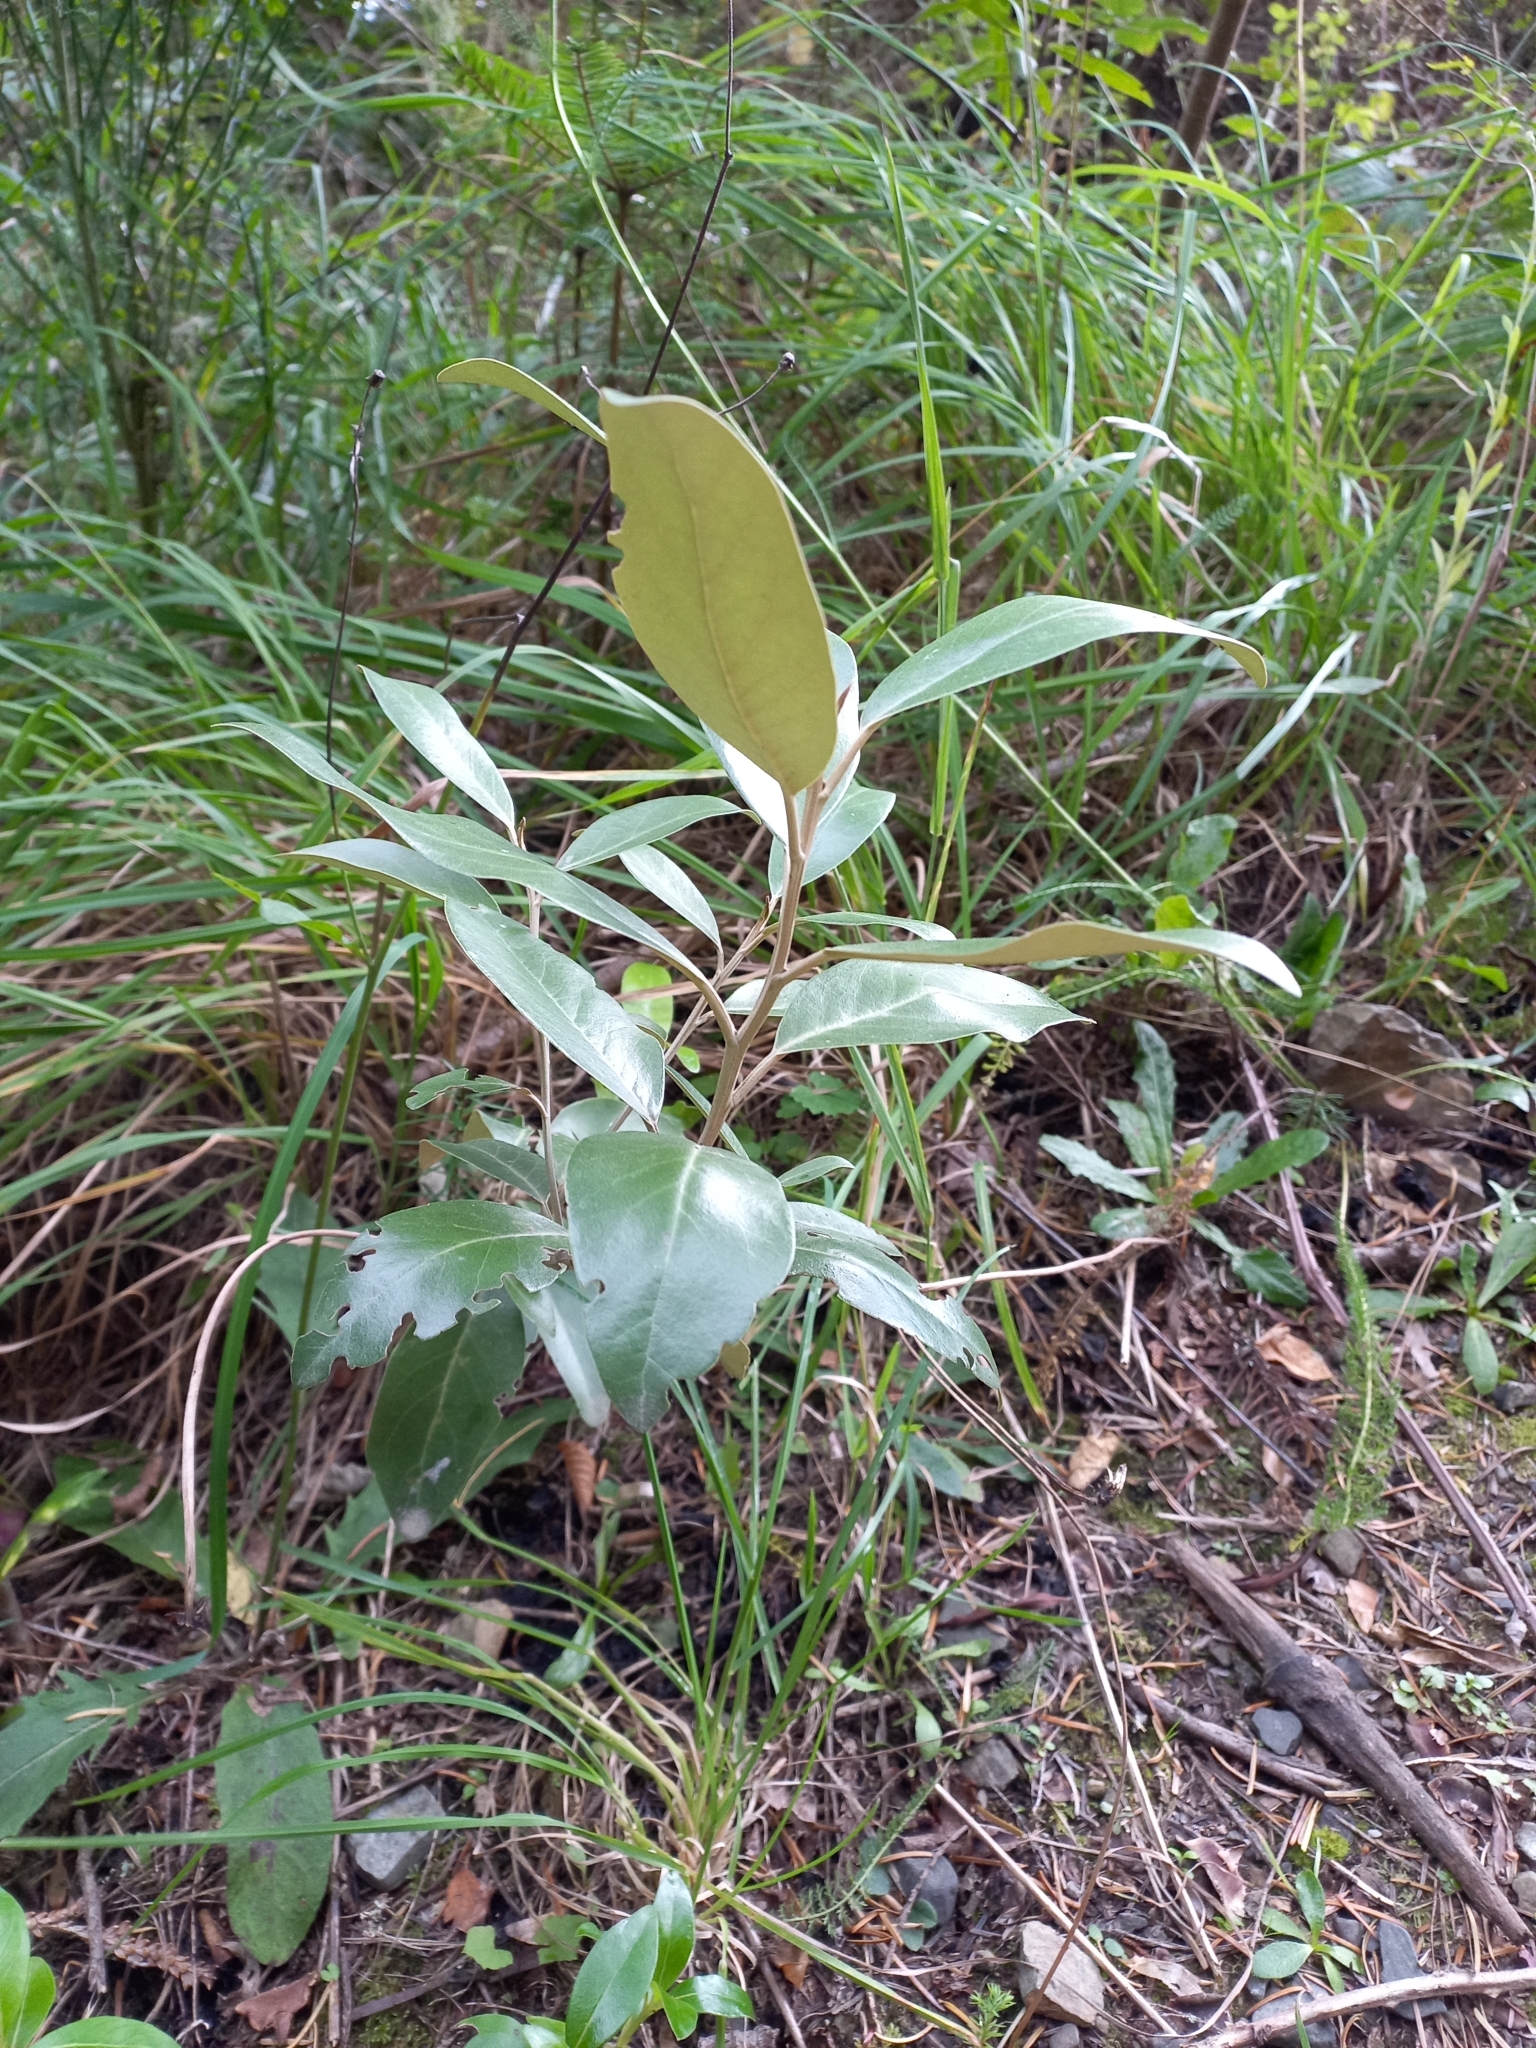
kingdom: Plantae
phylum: Tracheophyta
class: Magnoliopsida
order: Asterales
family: Asteraceae
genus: Olearia
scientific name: Olearia avicenniifolia
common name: Mangrove-leaf daisybush
